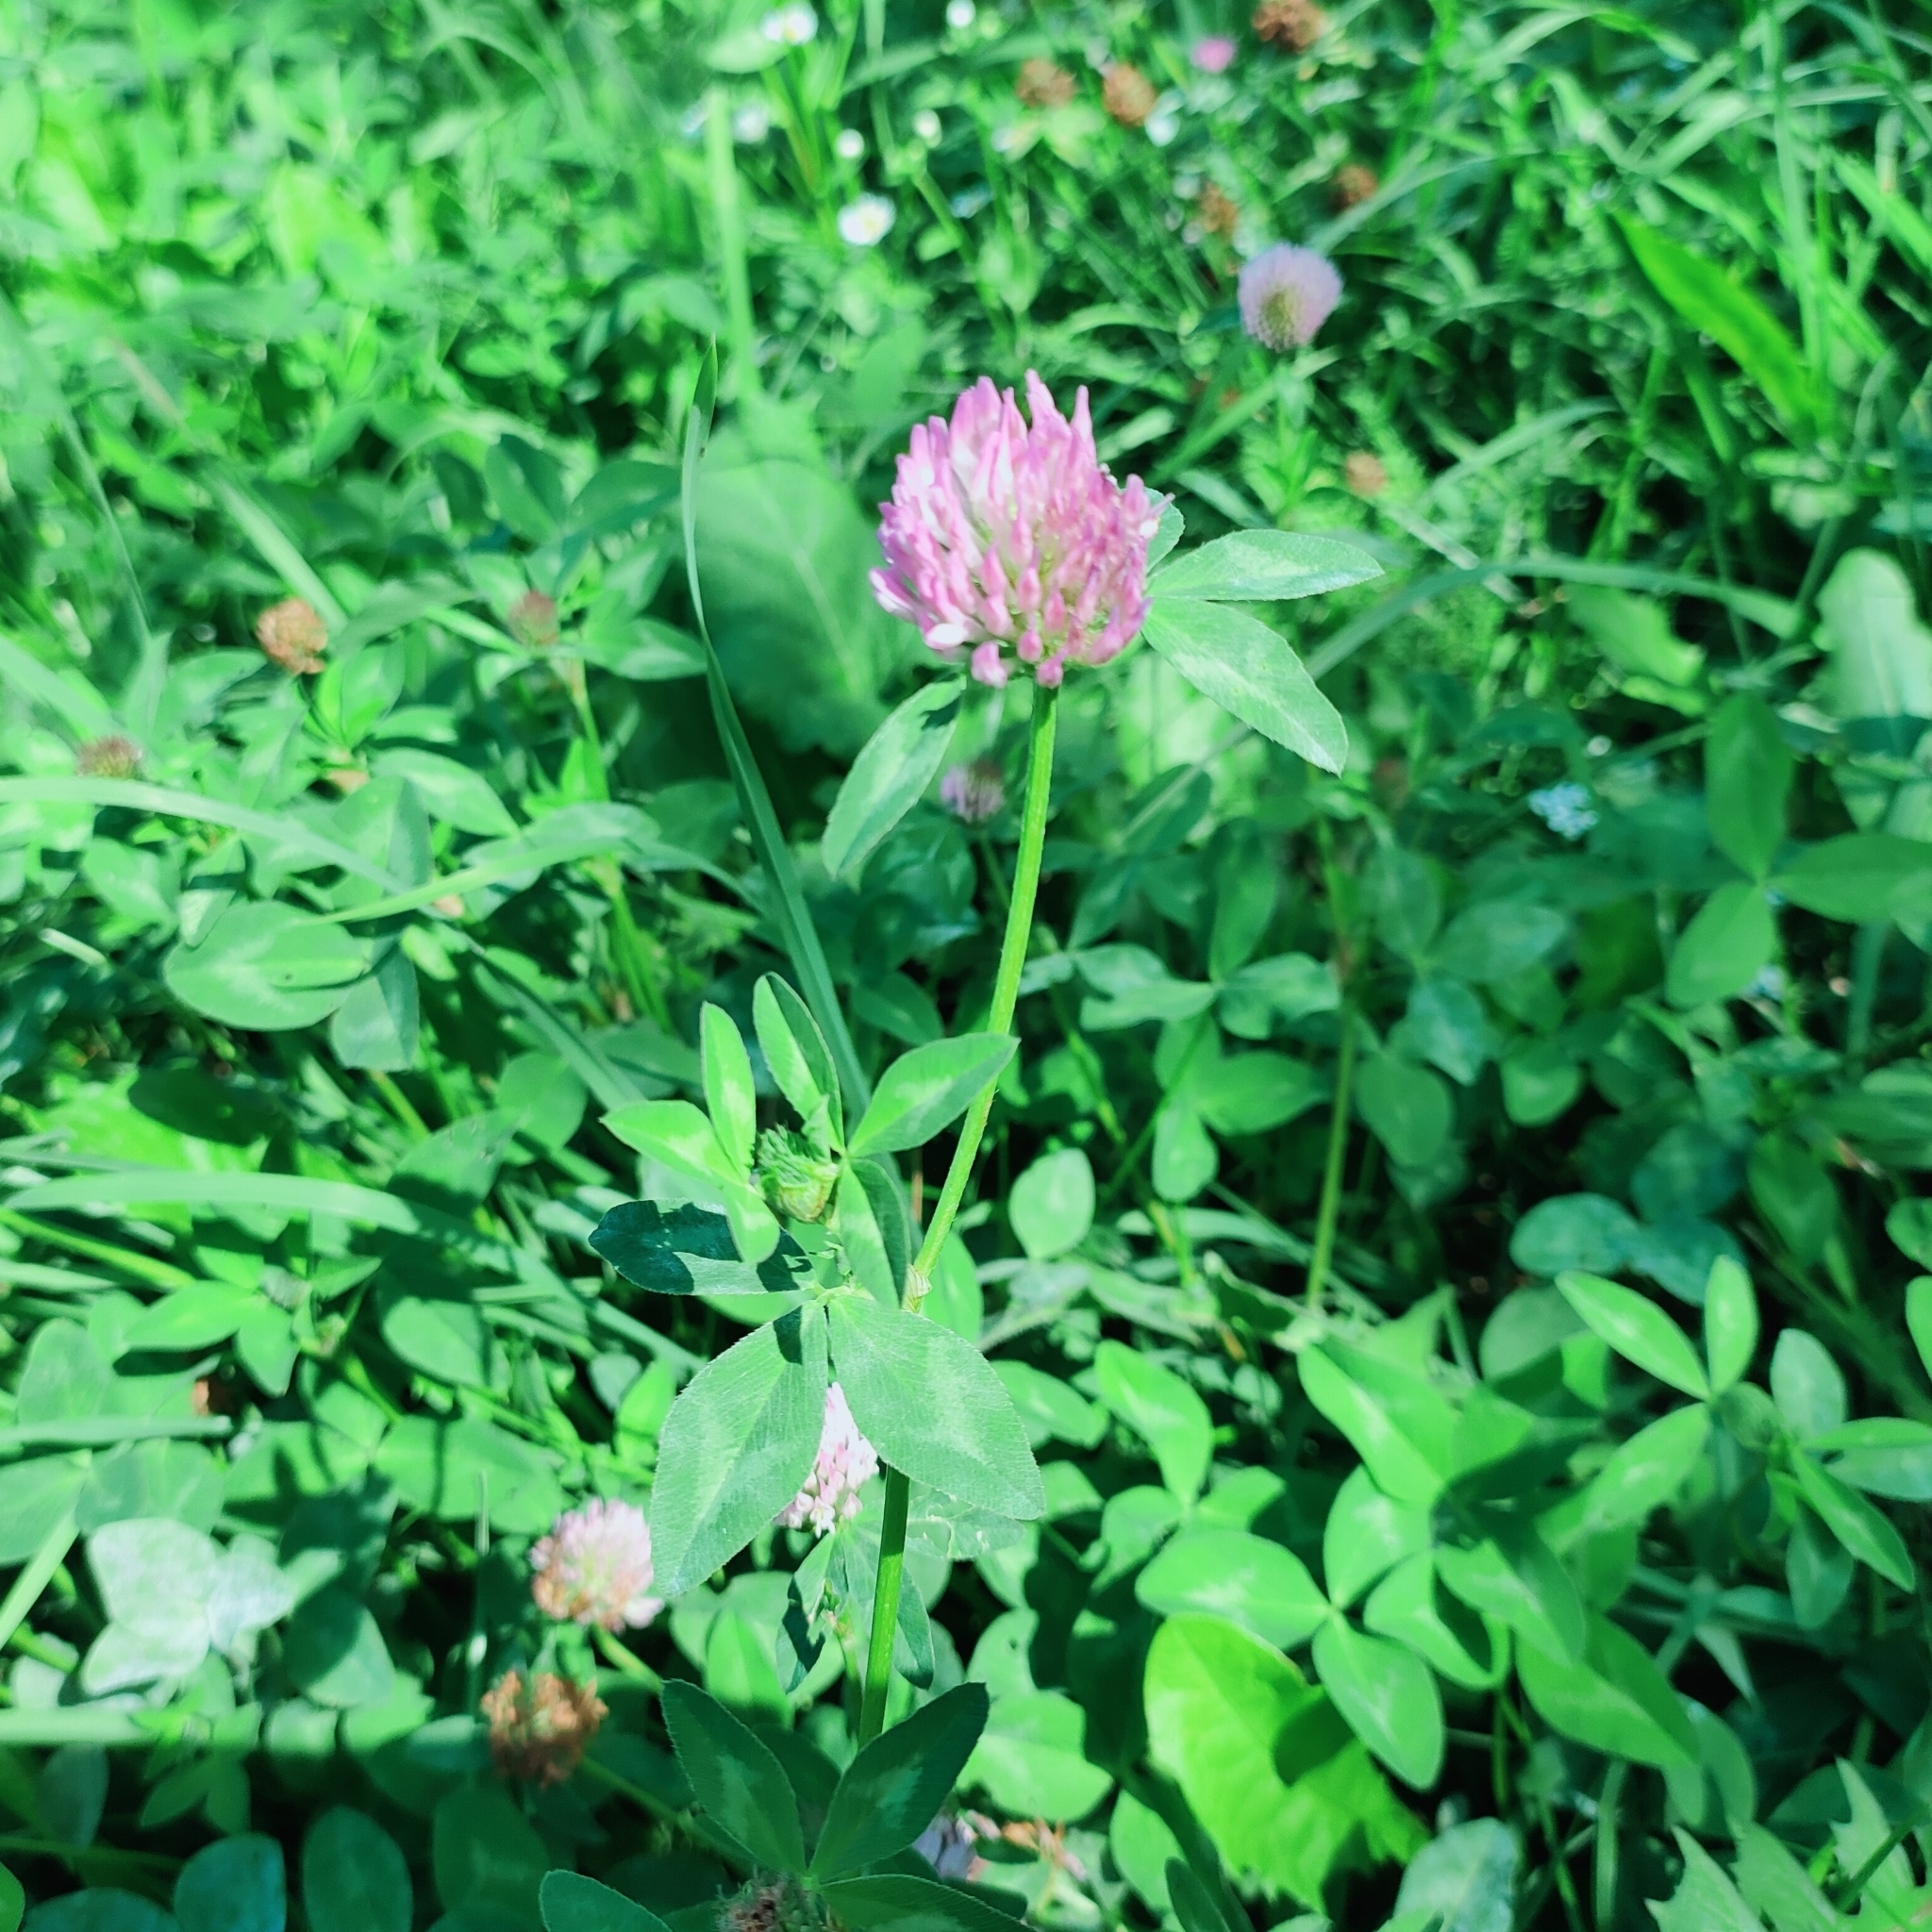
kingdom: Plantae
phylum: Tracheophyta
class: Magnoliopsida
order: Fabales
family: Fabaceae
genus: Trifolium
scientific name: Trifolium pratense
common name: Red clover
